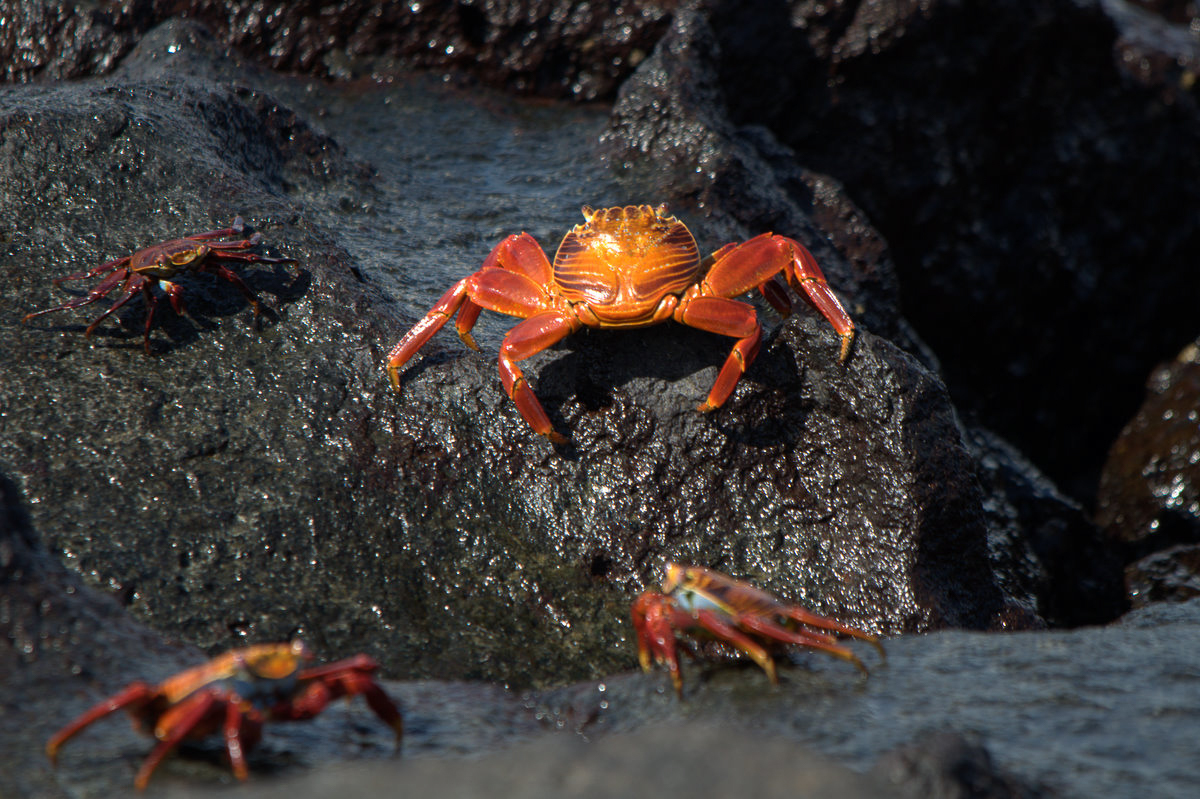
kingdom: Animalia
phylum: Arthropoda
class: Malacostraca
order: Decapoda
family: Grapsidae
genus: Grapsus
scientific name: Grapsus grapsus
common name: Sally lightfoot
